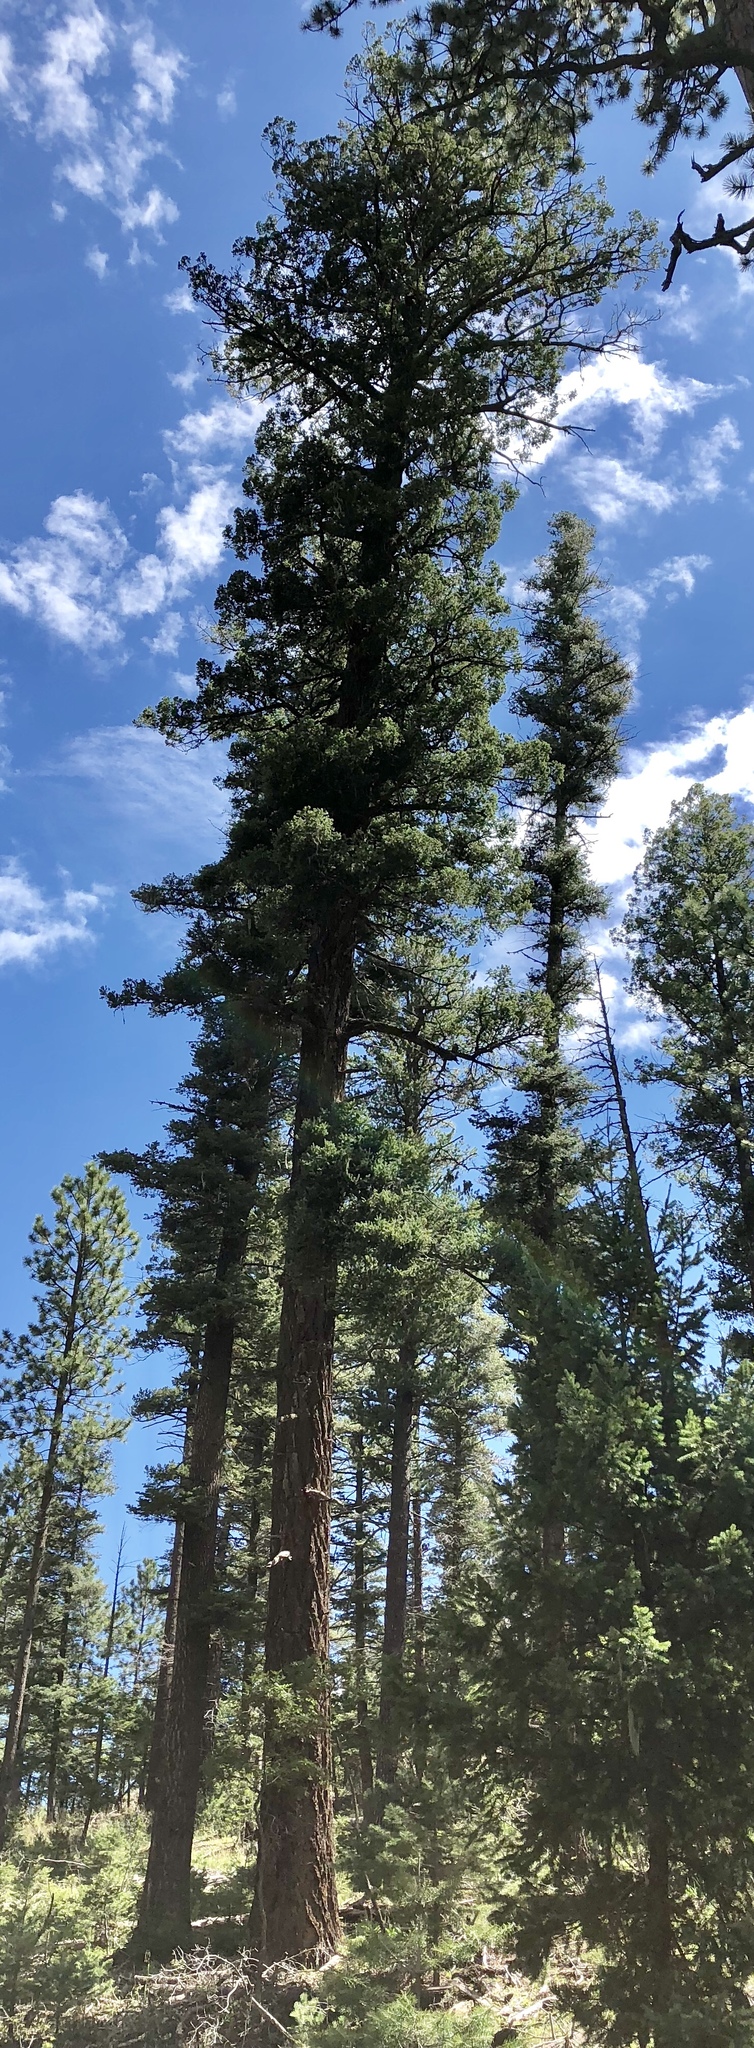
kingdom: Plantae
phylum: Tracheophyta
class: Pinopsida
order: Pinales
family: Pinaceae
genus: Pseudotsuga
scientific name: Pseudotsuga menziesii
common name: Douglas fir
